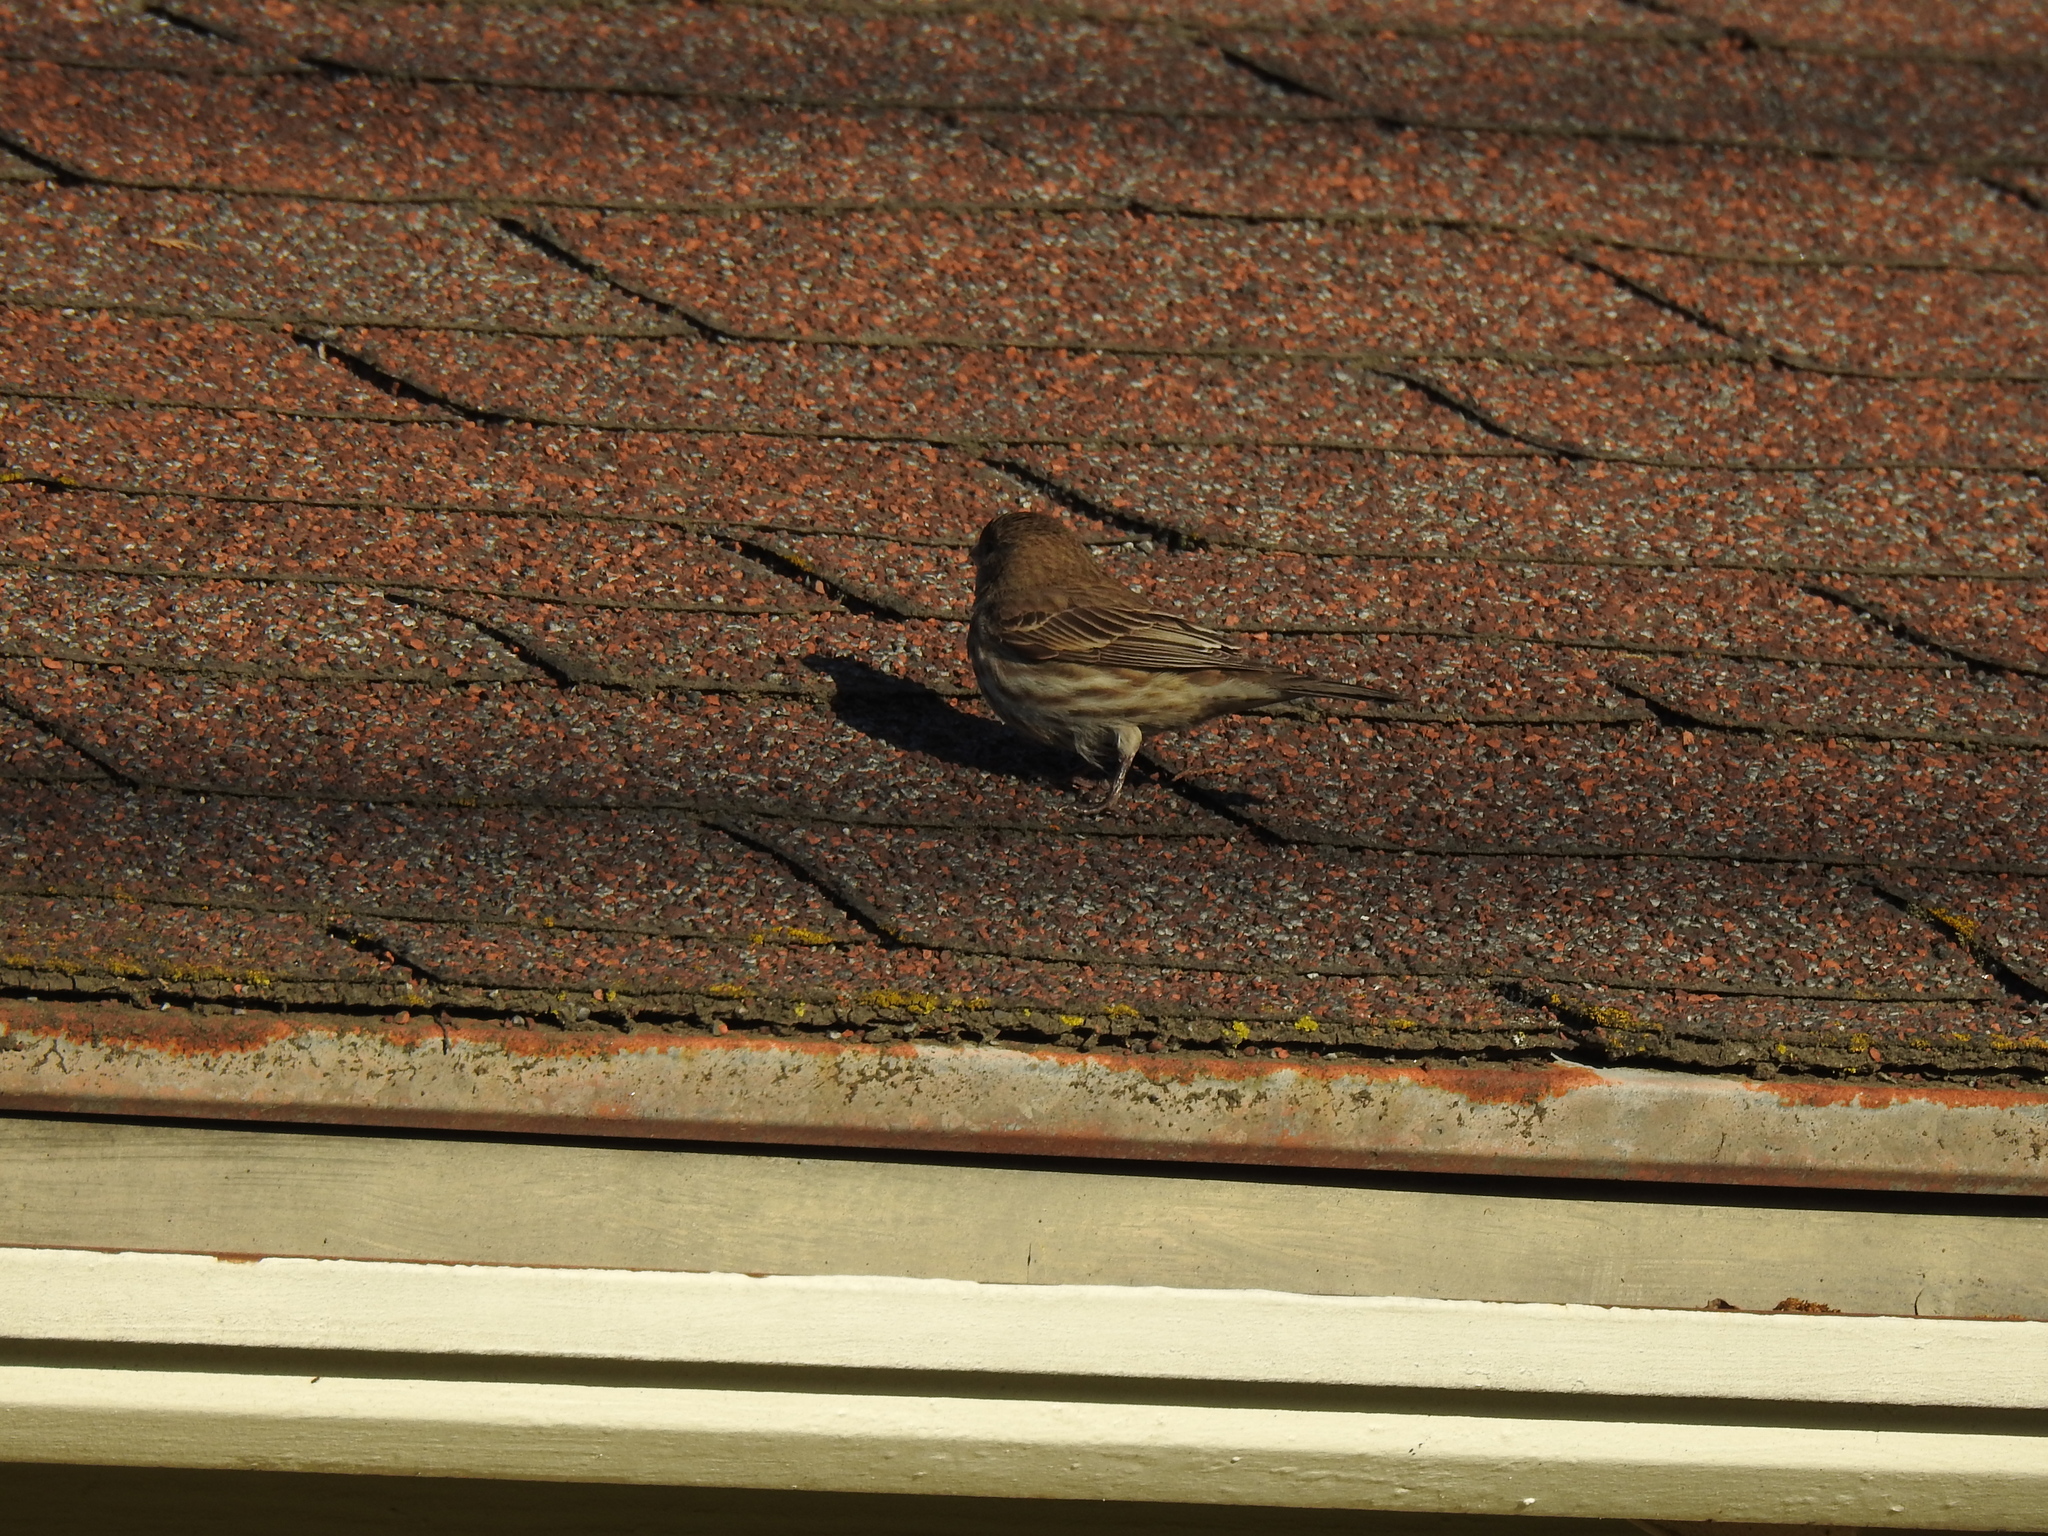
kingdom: Animalia
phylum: Chordata
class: Aves
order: Passeriformes
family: Fringillidae
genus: Haemorhous
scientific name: Haemorhous mexicanus
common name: House finch
